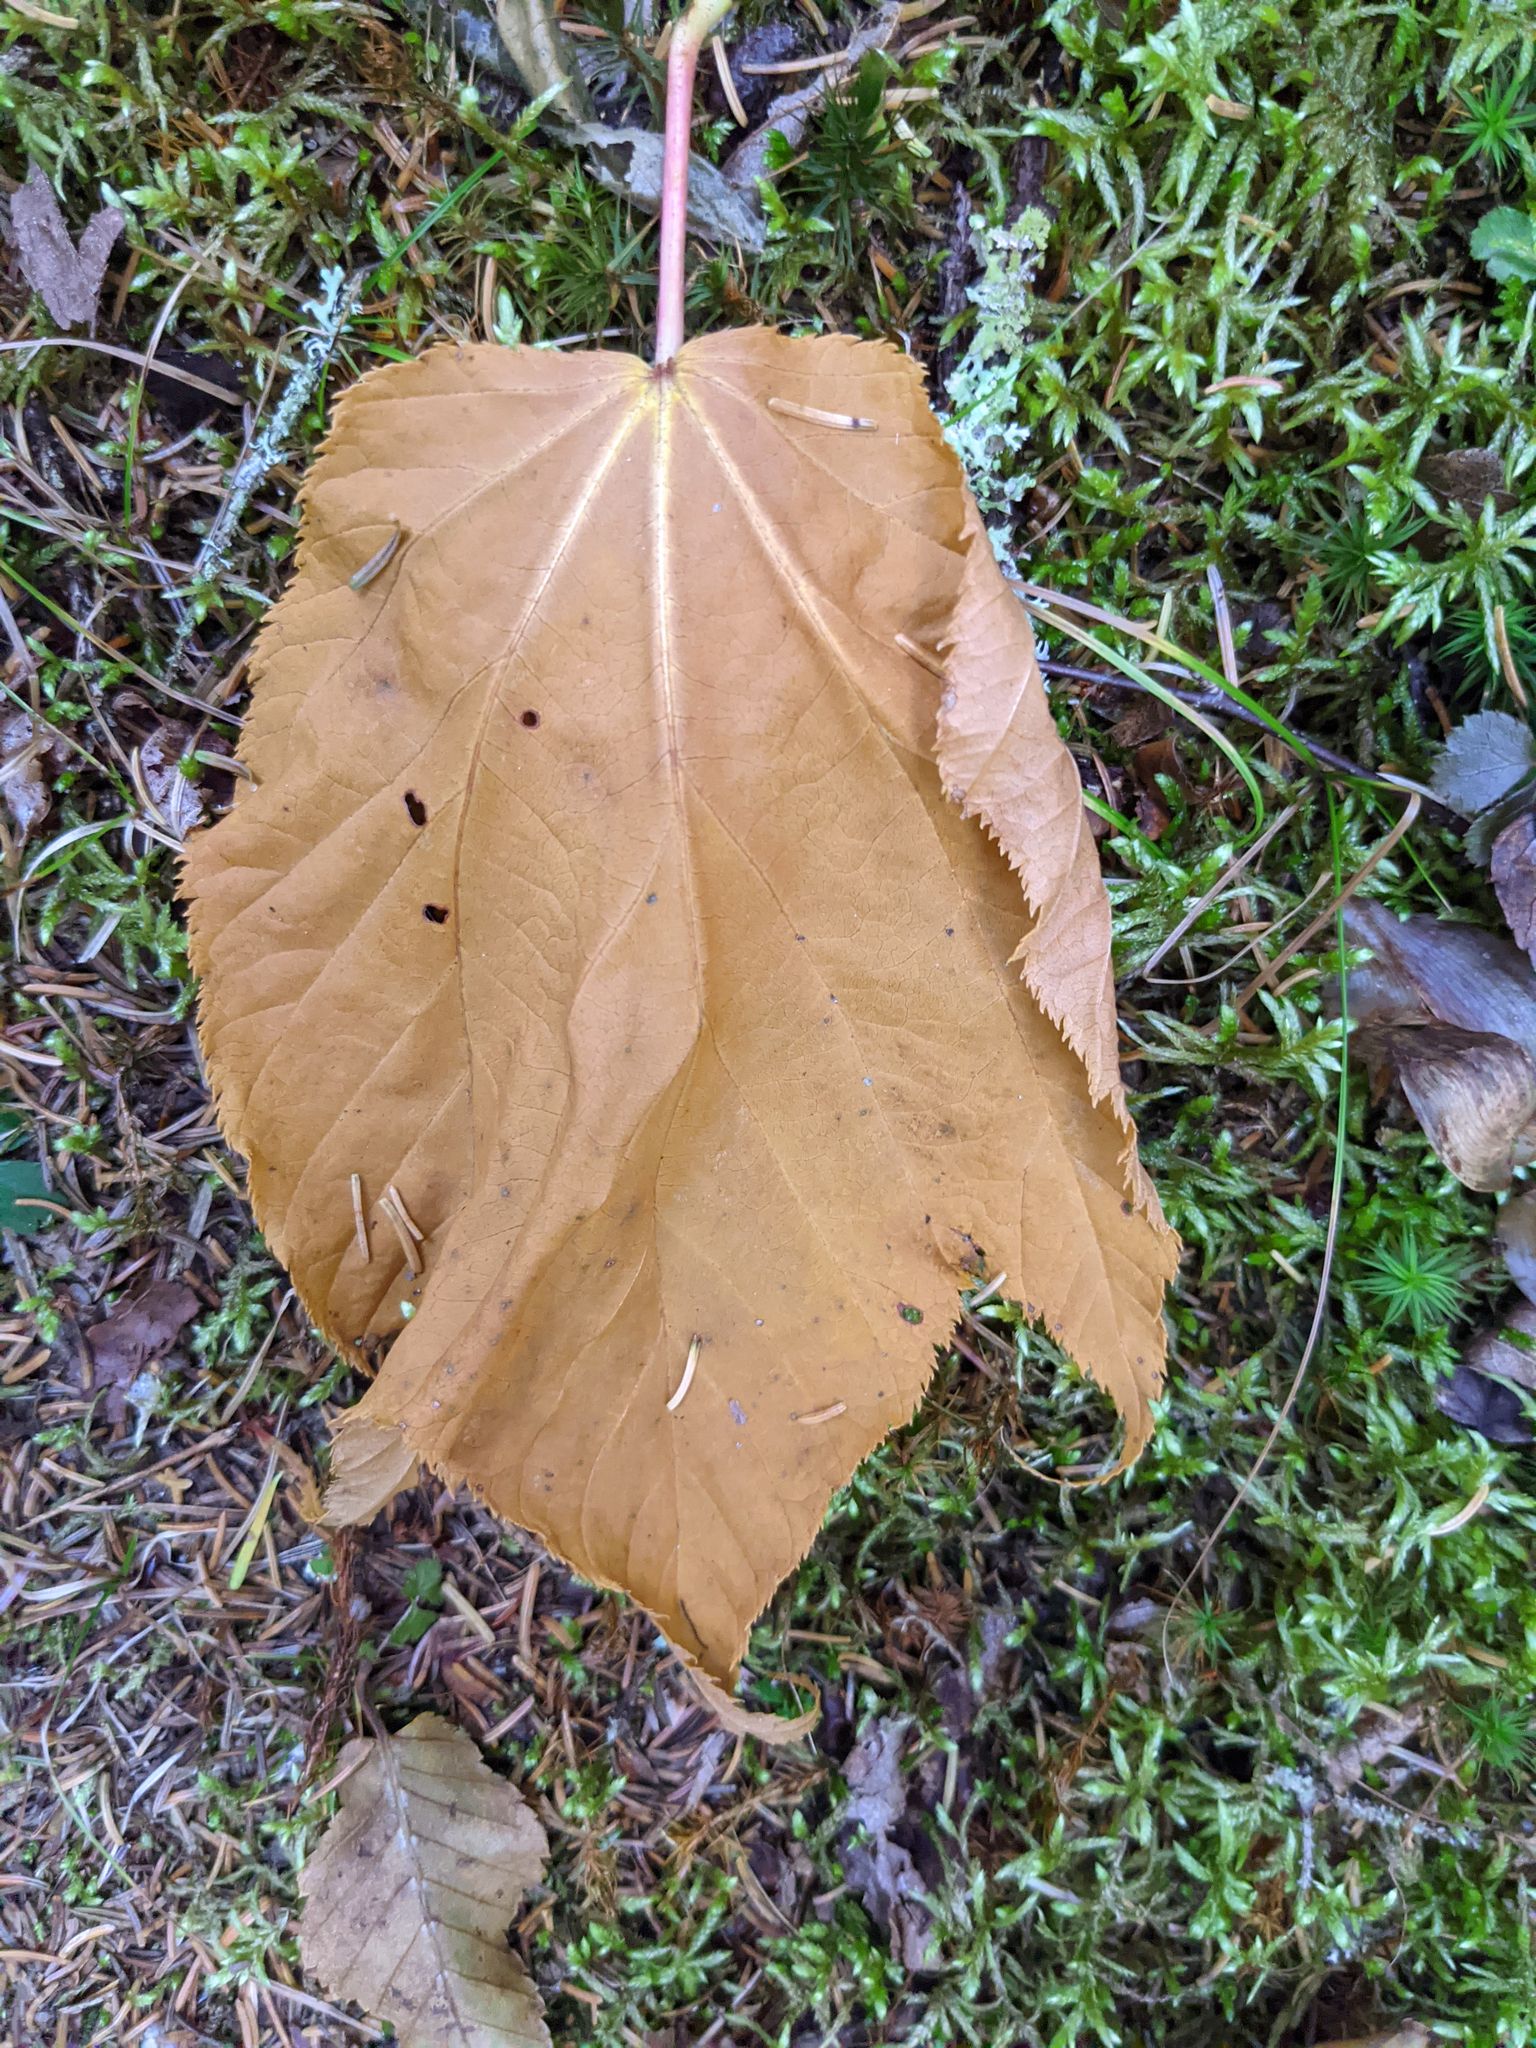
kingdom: Plantae
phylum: Tracheophyta
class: Magnoliopsida
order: Sapindales
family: Sapindaceae
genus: Acer
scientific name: Acer pensylvanicum
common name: Moosewood
